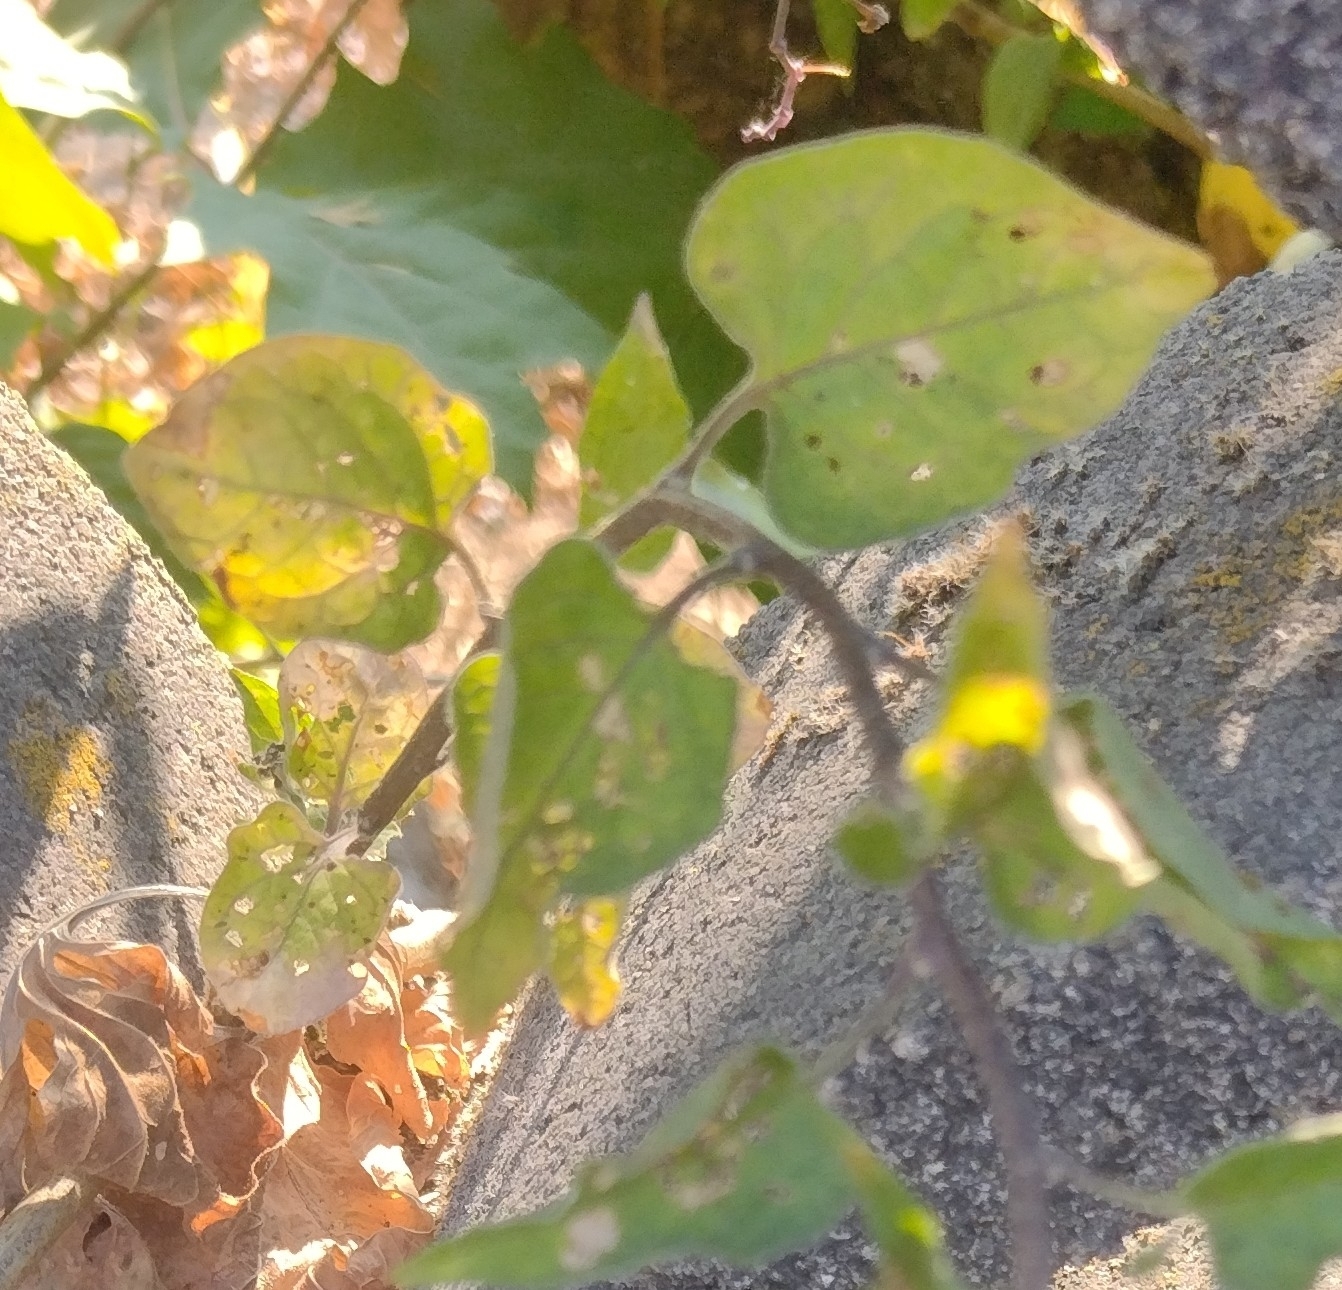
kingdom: Plantae
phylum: Tracheophyta
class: Magnoliopsida
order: Solanales
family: Solanaceae
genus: Solanum
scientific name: Solanum dulcamara
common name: Climbing nightshade
